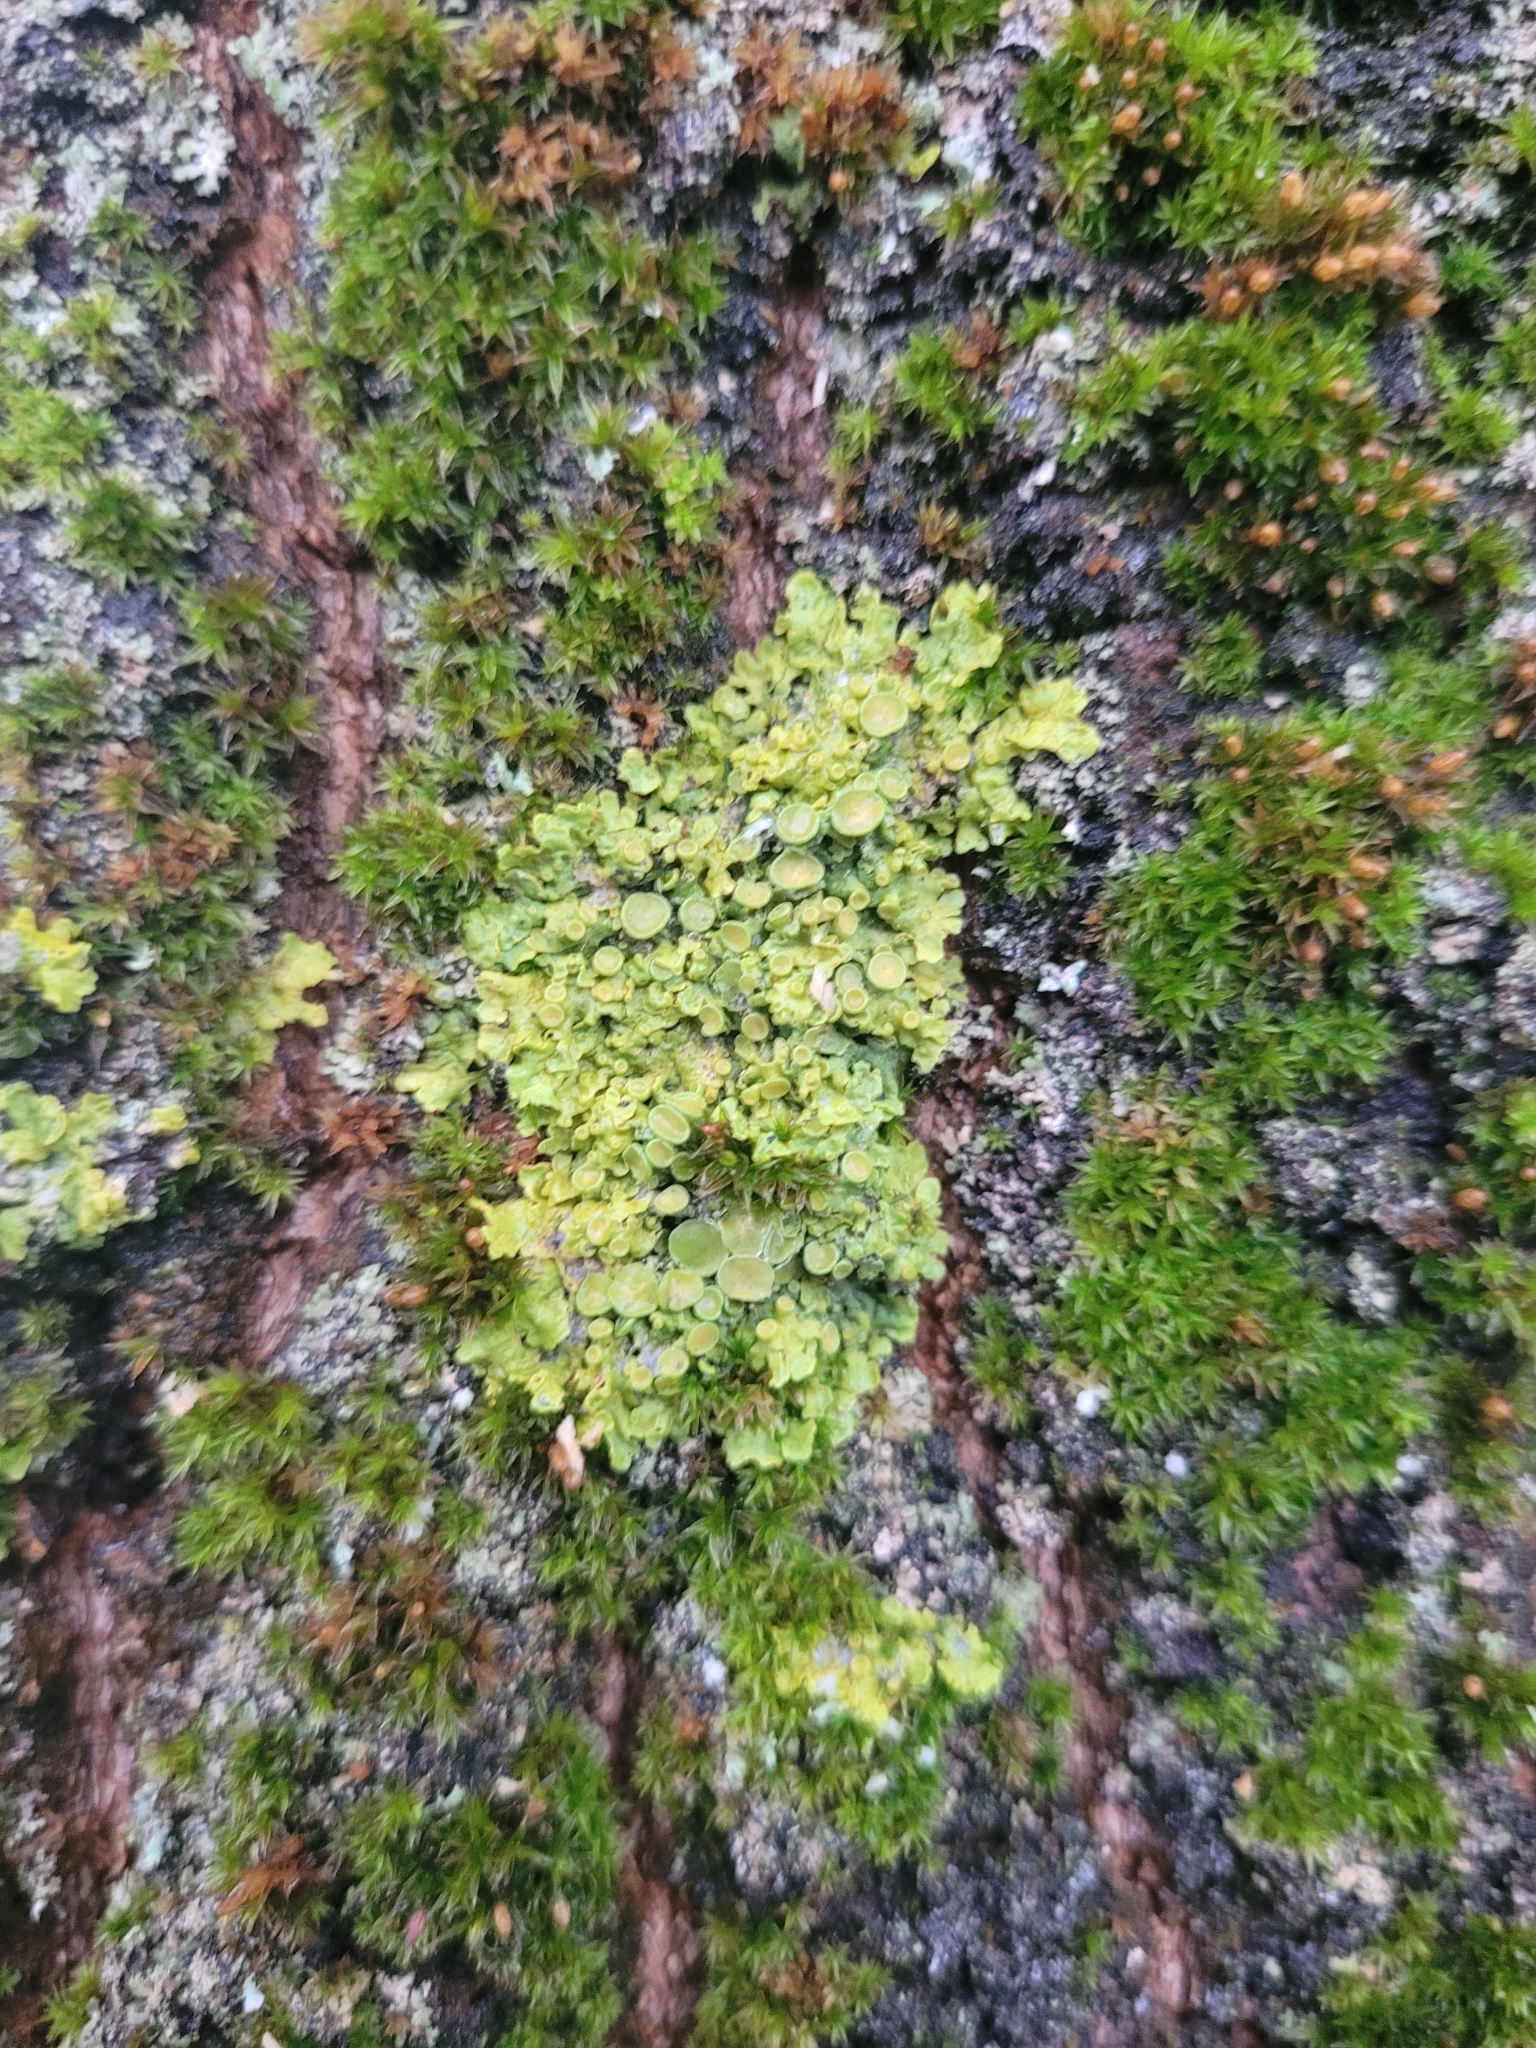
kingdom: Fungi
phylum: Ascomycota
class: Lecanoromycetes
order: Teloschistales
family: Teloschistaceae
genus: Xanthoria
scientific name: Xanthoria parietina
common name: Common orange lichen
